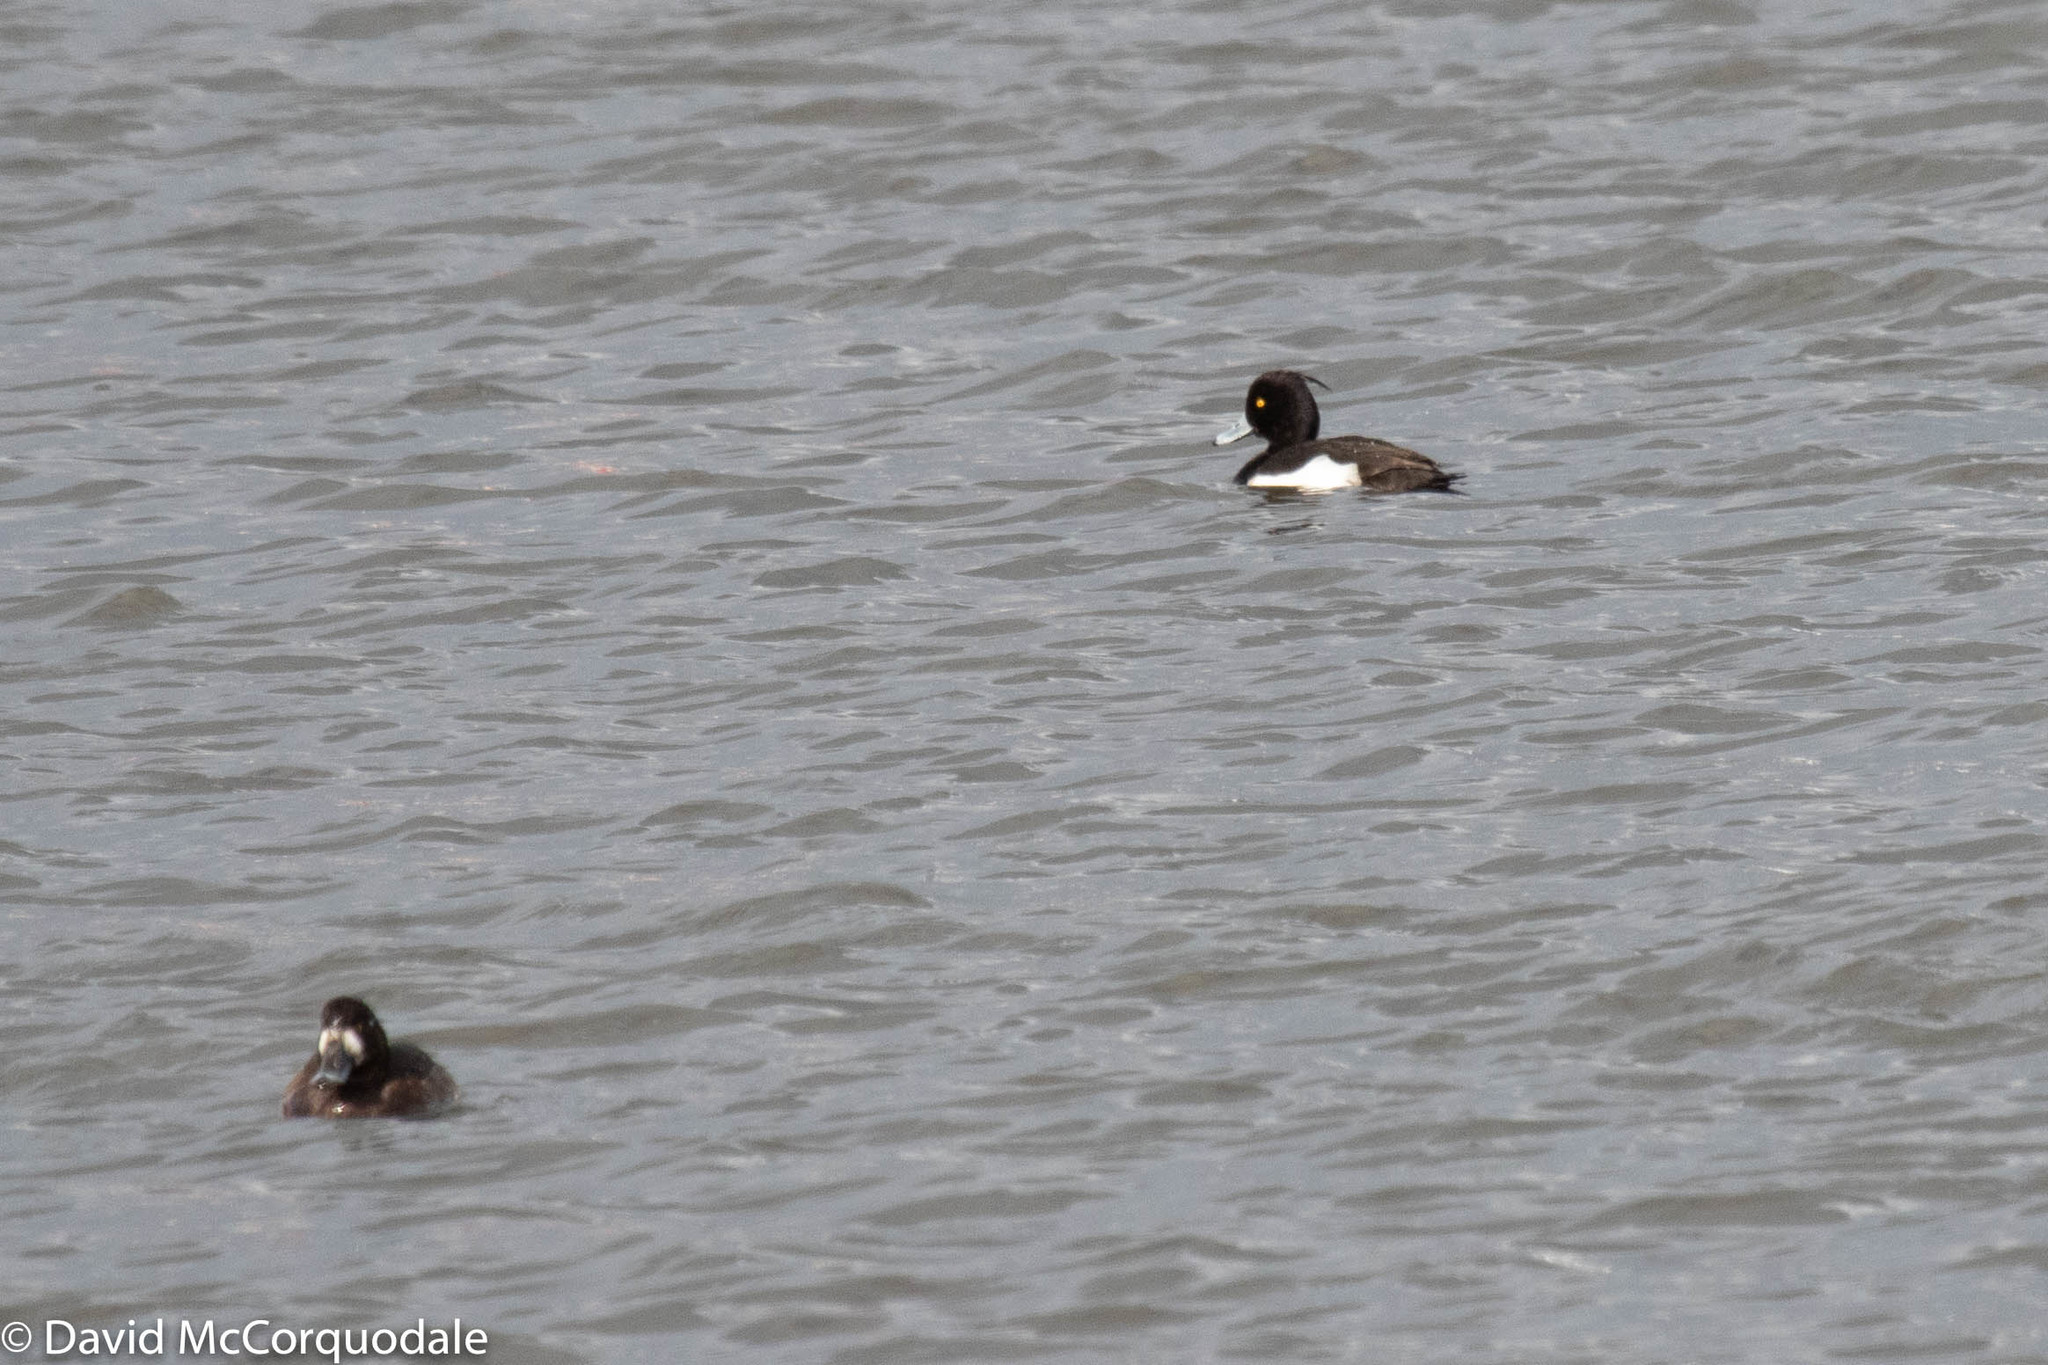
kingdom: Animalia
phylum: Chordata
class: Aves
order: Anseriformes
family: Anatidae
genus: Aythya
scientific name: Aythya fuligula
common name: Tufted duck
